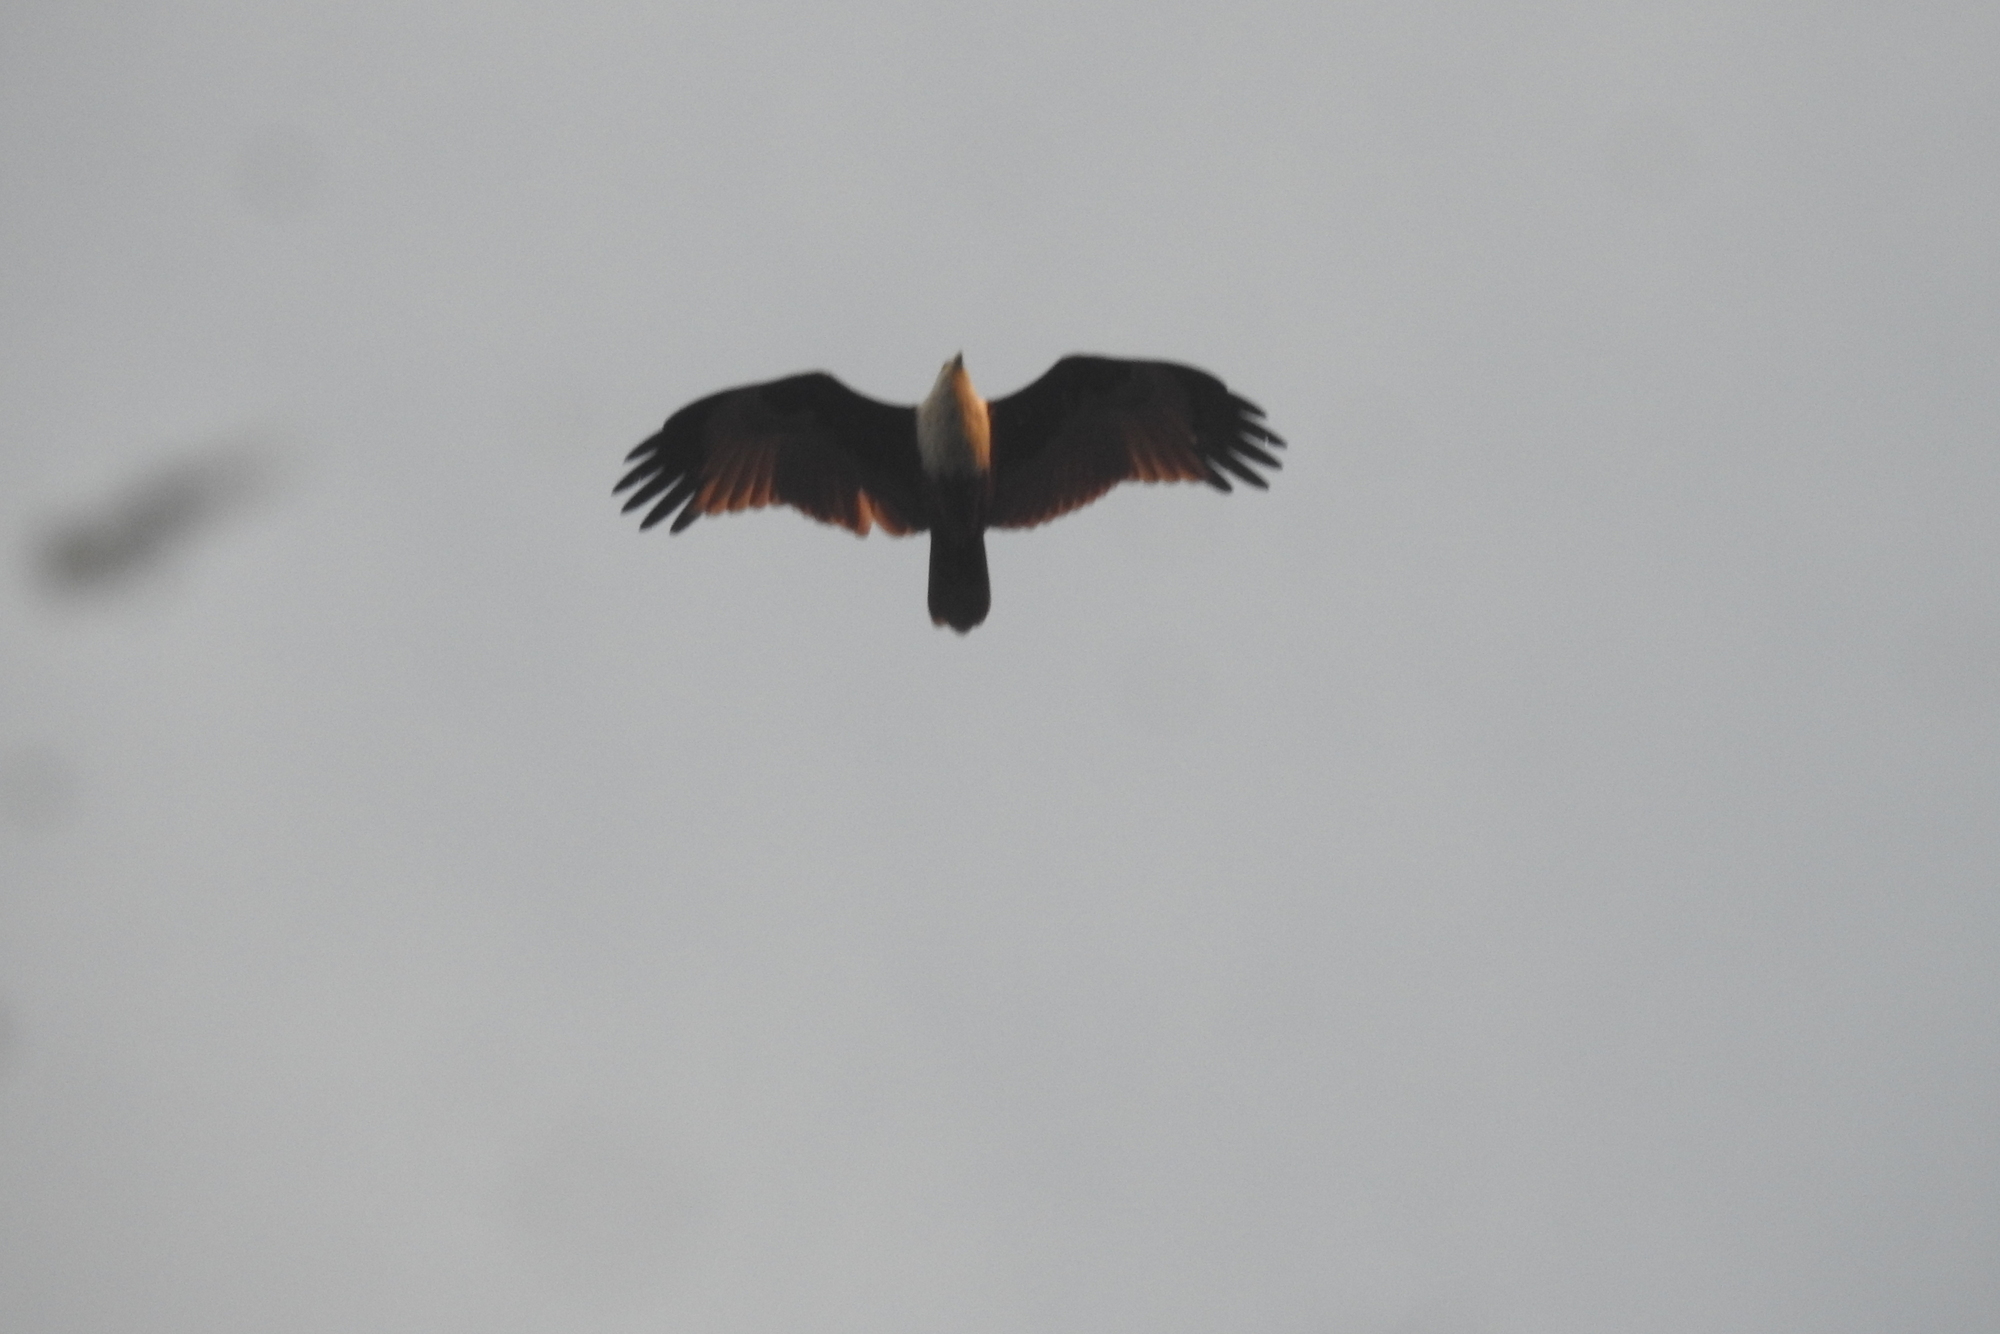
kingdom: Animalia
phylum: Chordata
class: Aves
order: Accipitriformes
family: Accipitridae
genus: Haliastur
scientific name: Haliastur indus
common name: Brahminy kite
